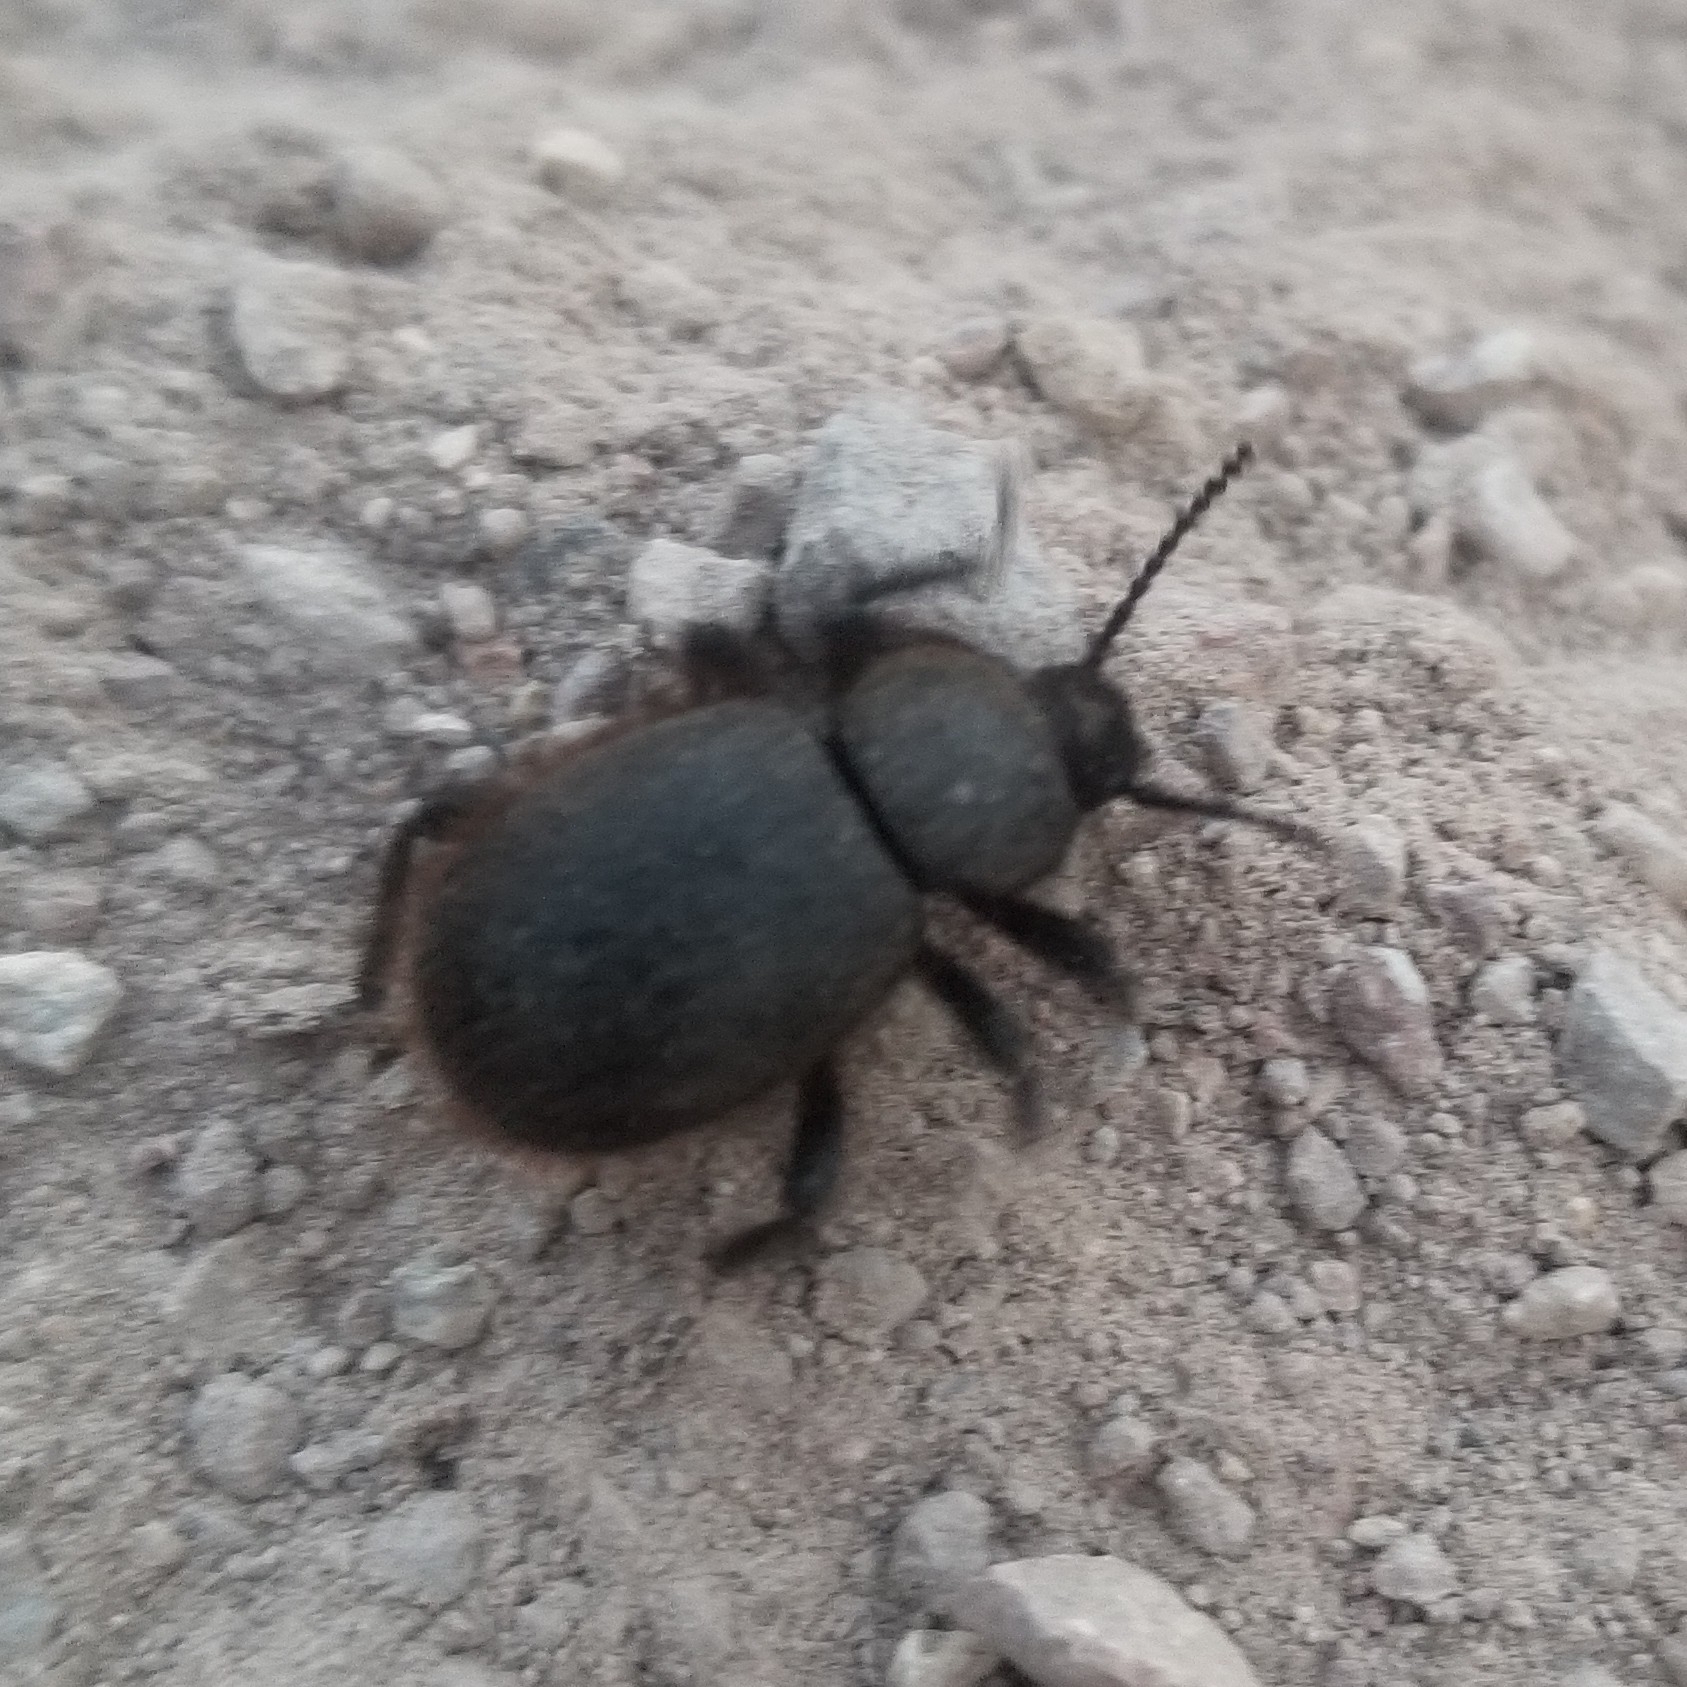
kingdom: Animalia
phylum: Arthropoda
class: Insecta
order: Coleoptera
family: Tenebrionidae
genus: Eleodes
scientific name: Eleodes osculans
